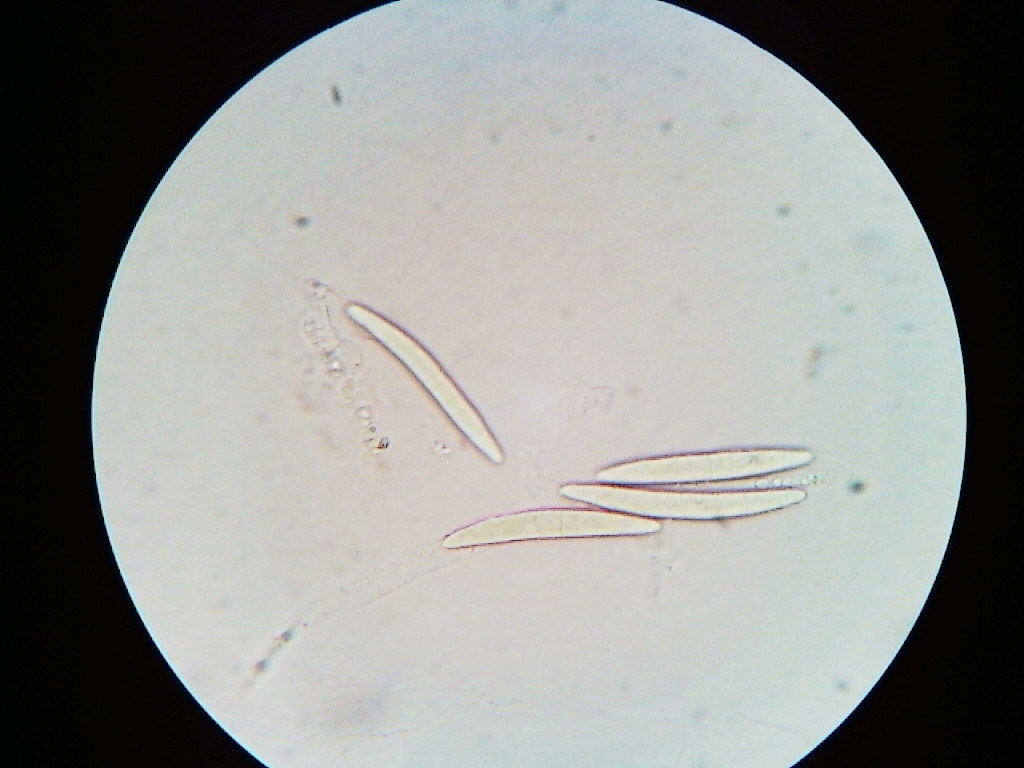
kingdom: Fungi
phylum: Ascomycota
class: Sordariomycetes
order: Coronophorales
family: Bertiaceae
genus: Bertia
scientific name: Bertia moriformis
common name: Wood mulberry
